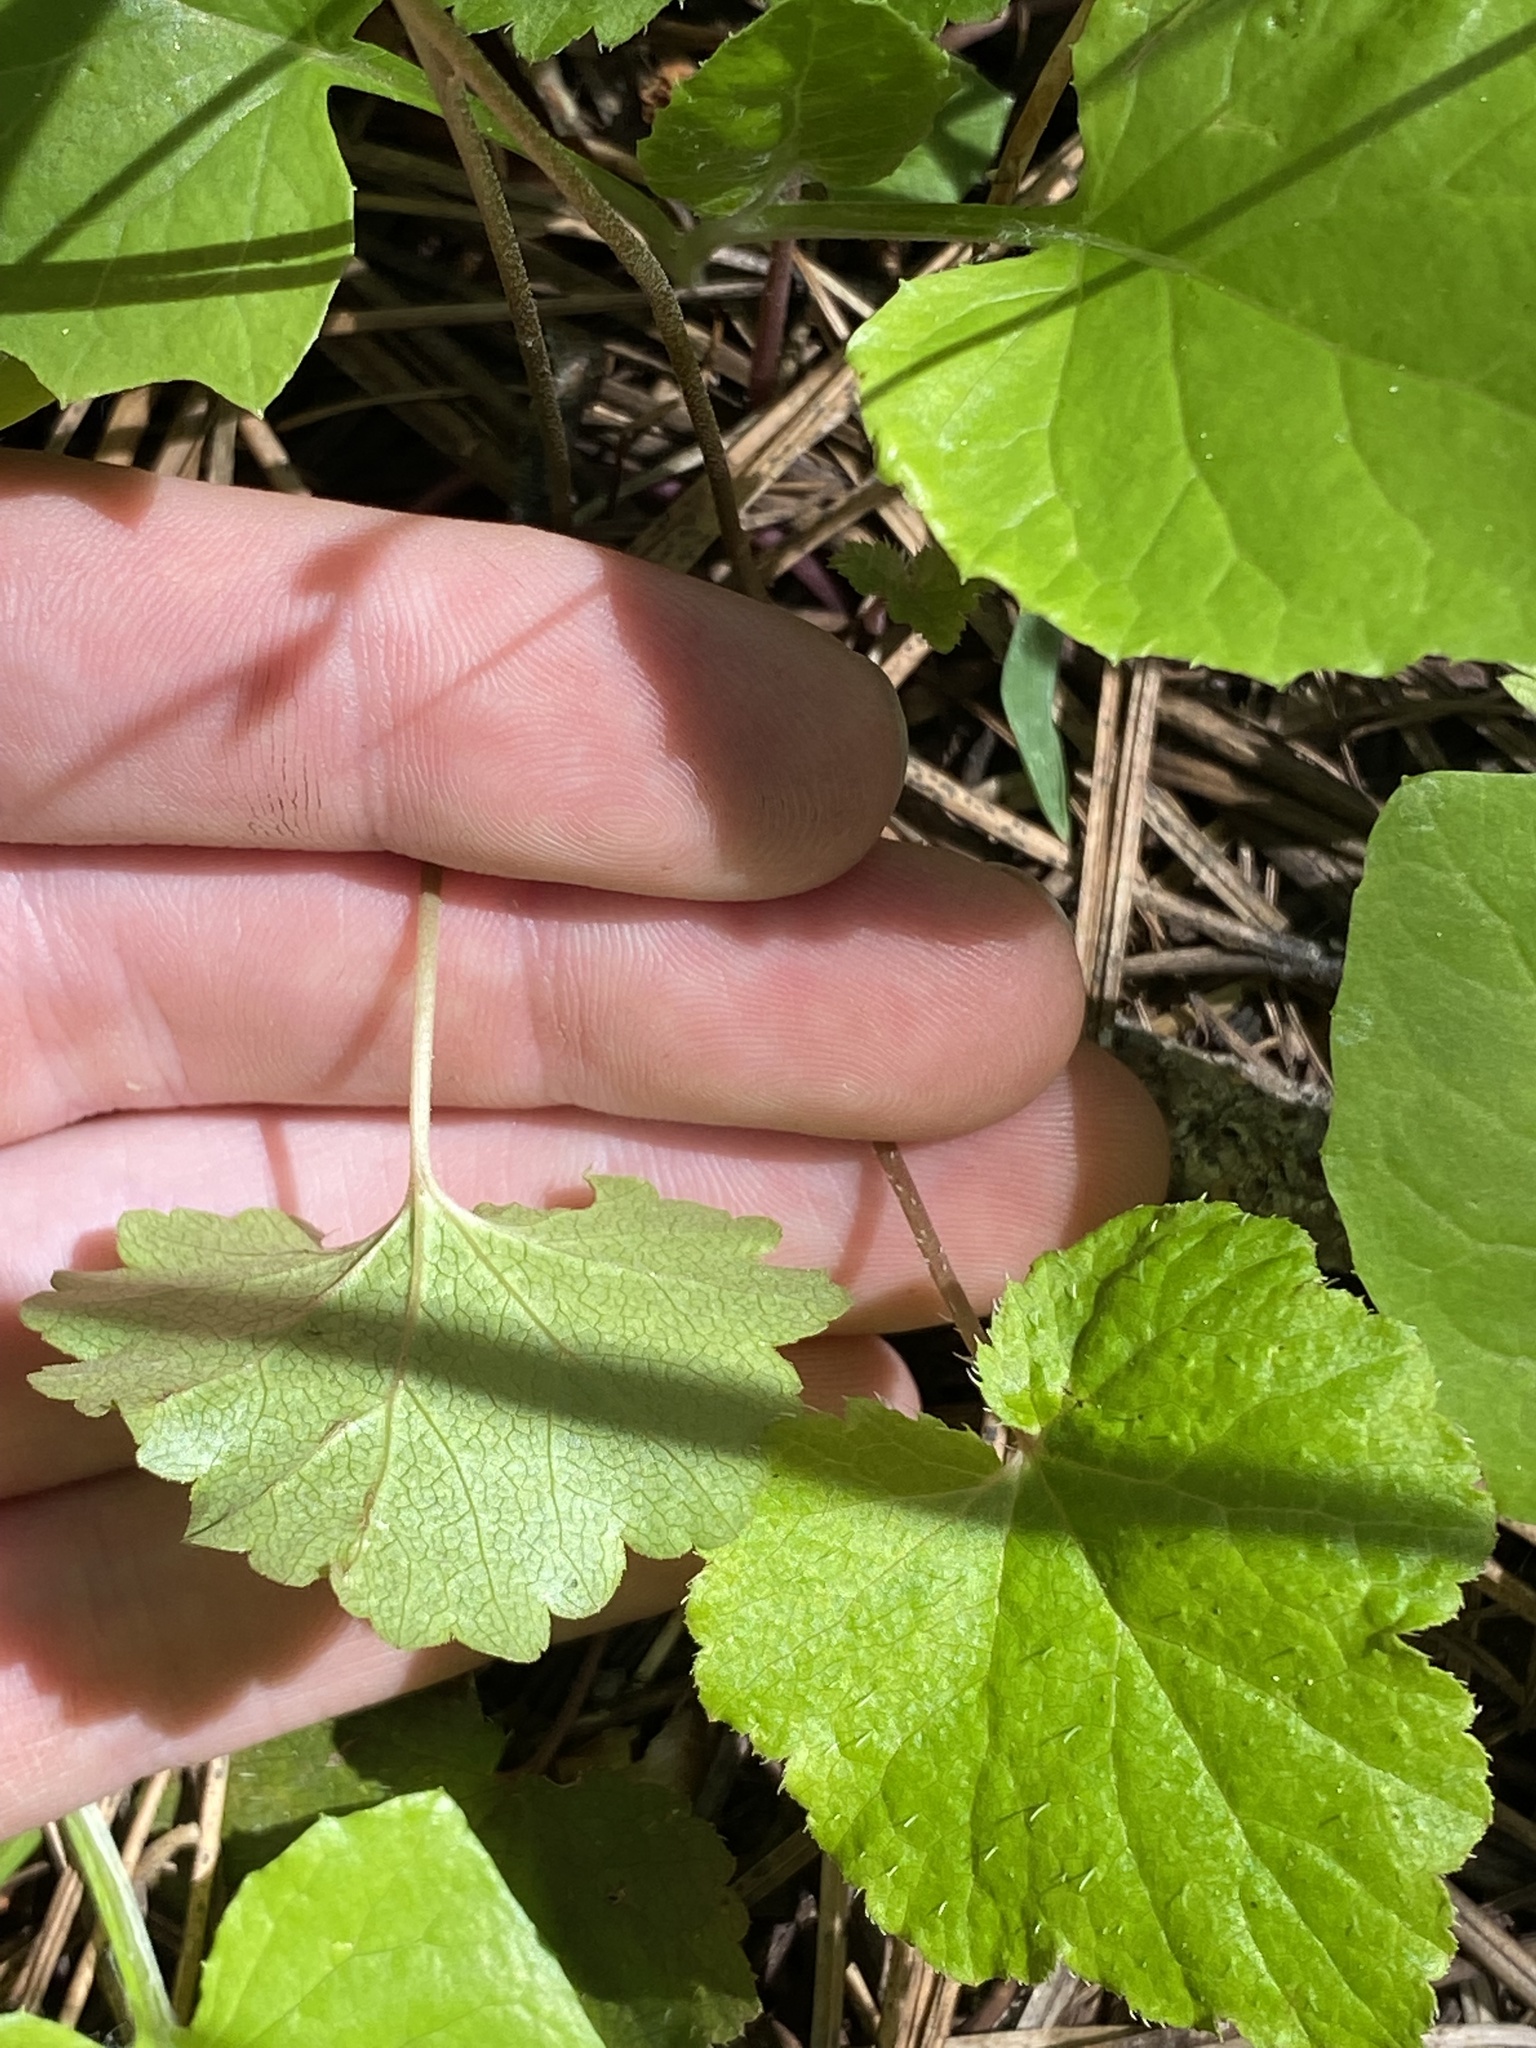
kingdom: Plantae
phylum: Tracheophyta
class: Magnoliopsida
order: Saxifragales
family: Saxifragaceae
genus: Ozomelis
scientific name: Ozomelis trifida
